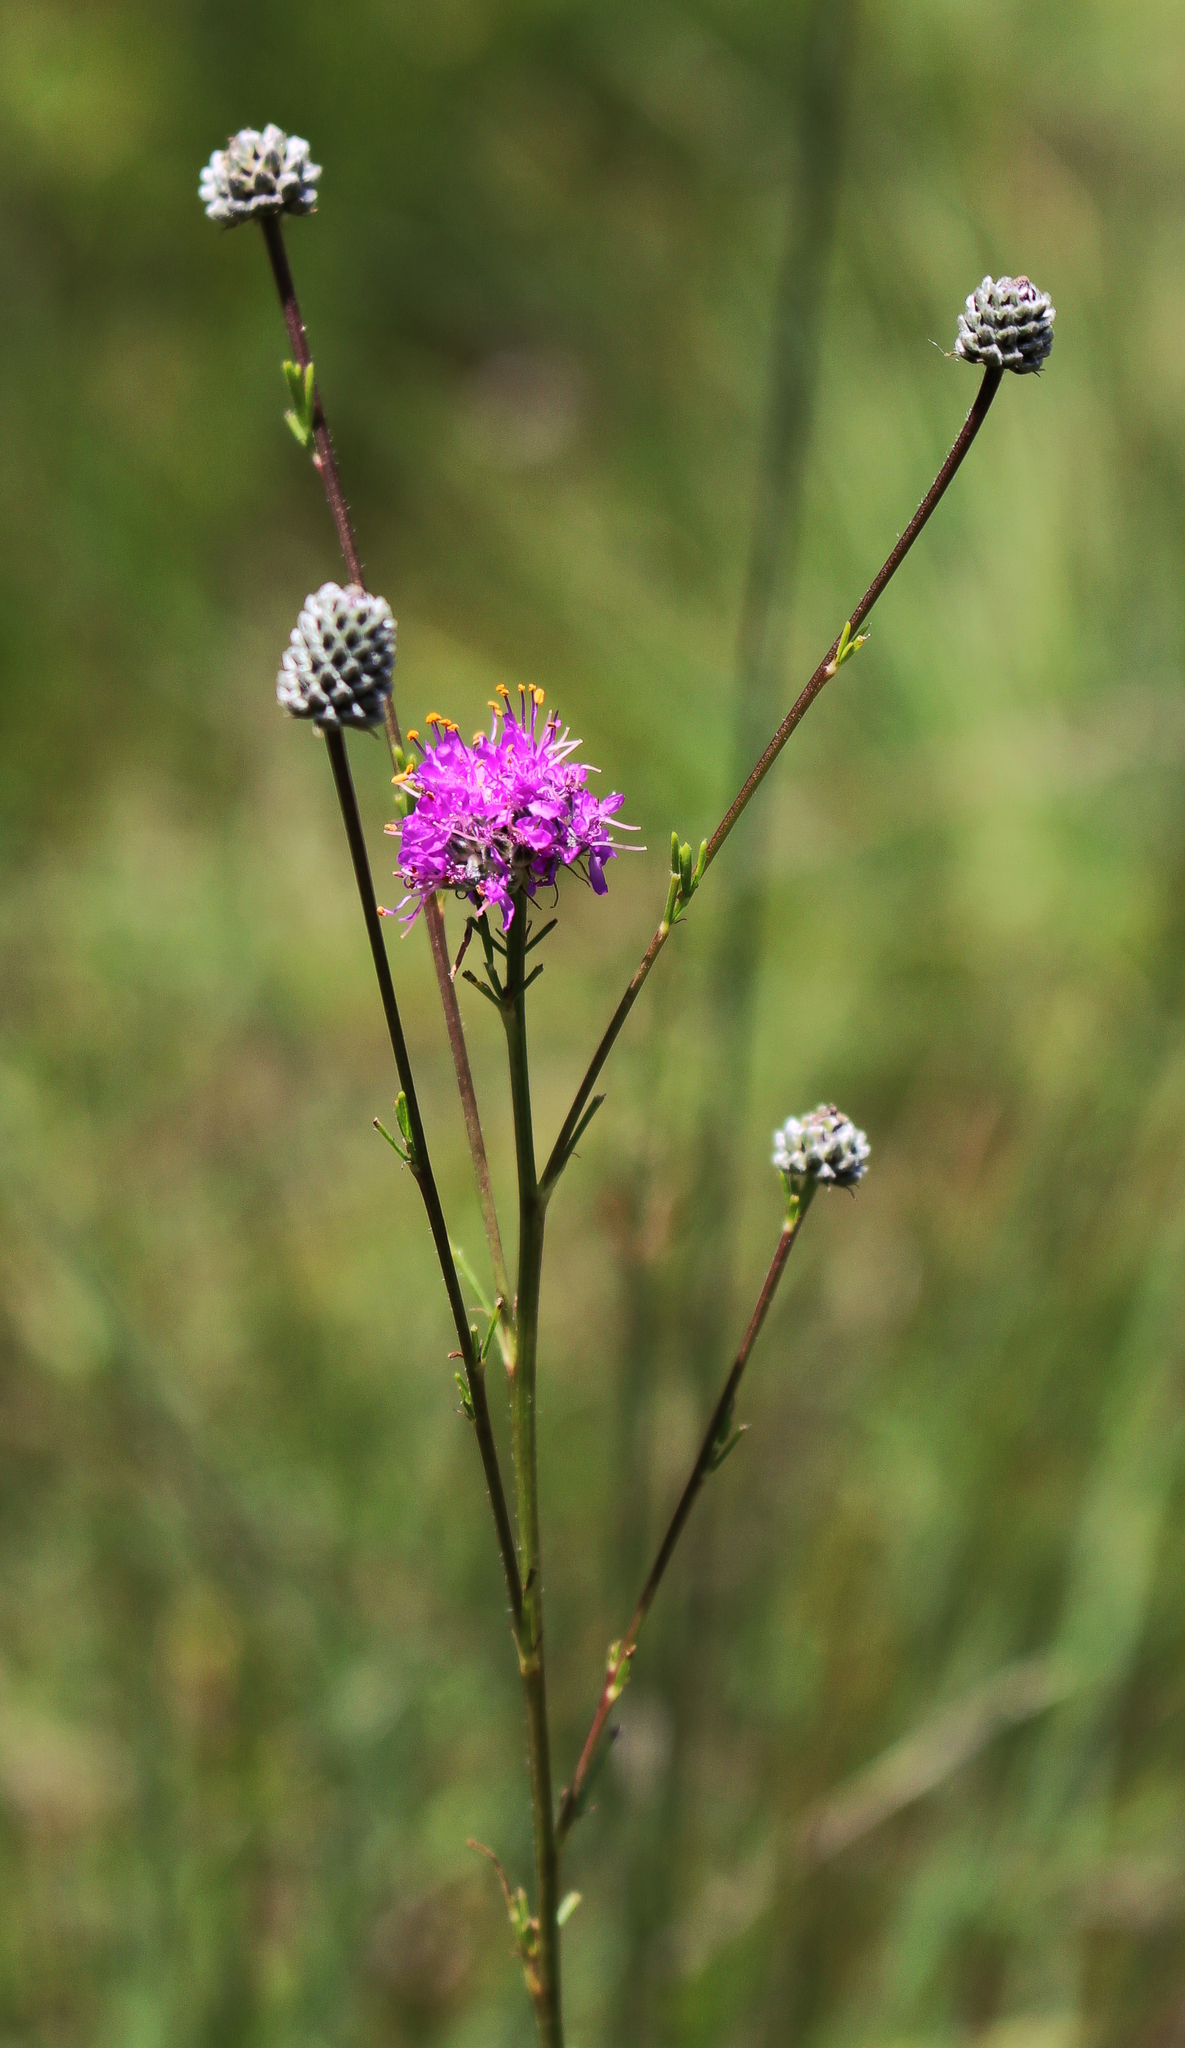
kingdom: Plantae
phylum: Tracheophyta
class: Magnoliopsida
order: Fabales
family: Fabaceae
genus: Dalea
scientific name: Dalea purpurea
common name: Purple prairie-clover
